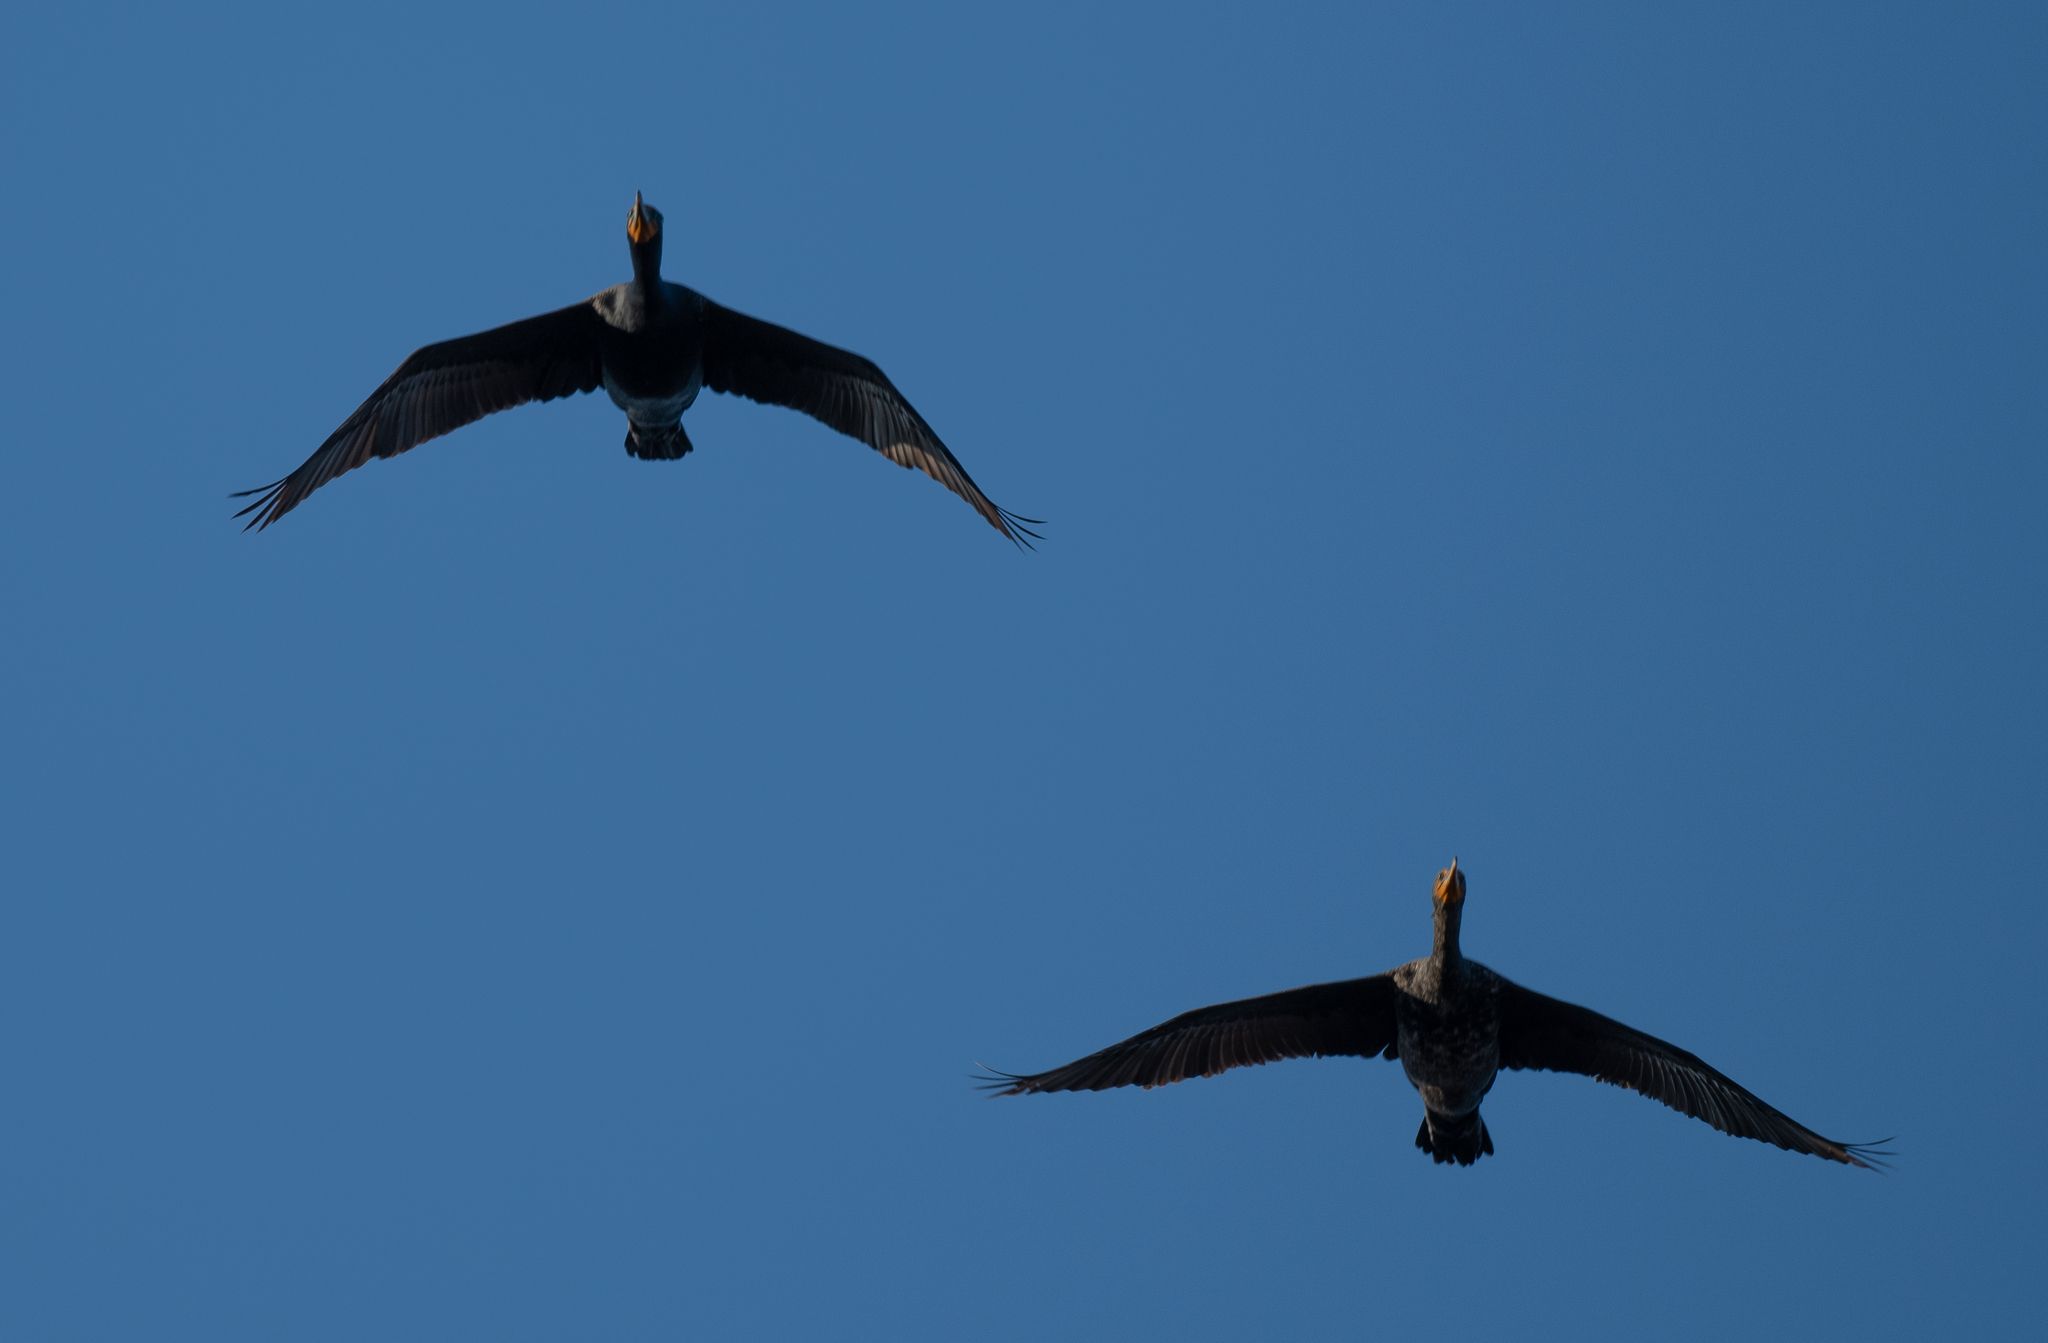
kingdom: Animalia
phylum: Chordata
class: Aves
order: Suliformes
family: Phalacrocoracidae
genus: Phalacrocorax
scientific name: Phalacrocorax auritus
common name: Double-crested cormorant
